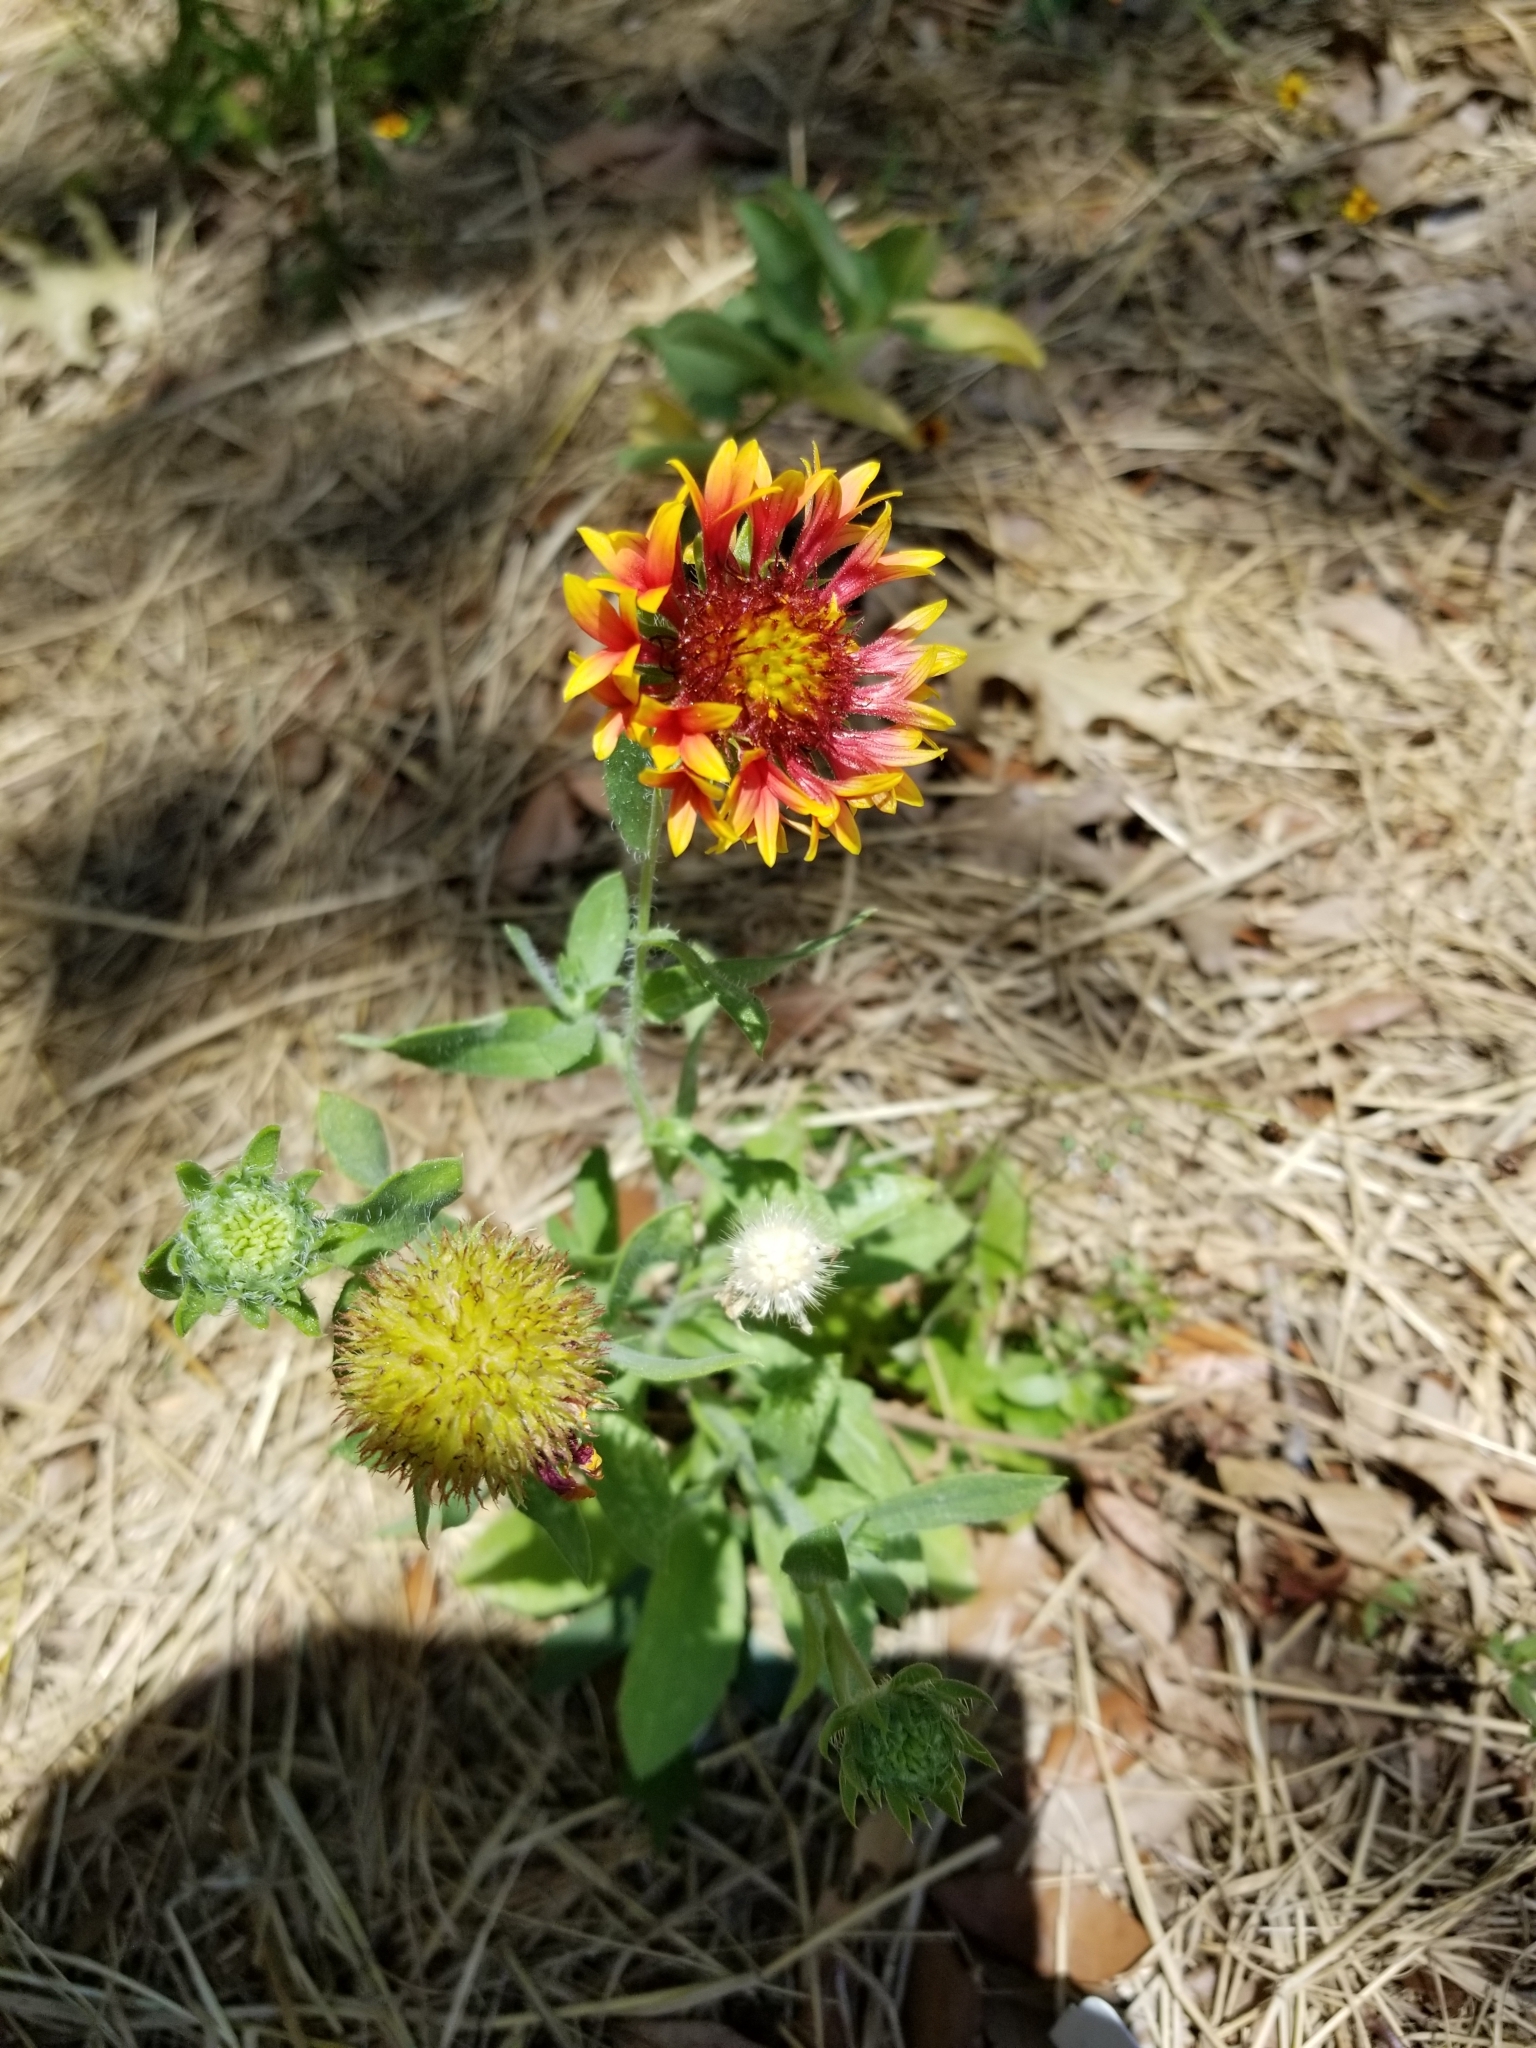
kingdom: Plantae
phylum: Tracheophyta
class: Magnoliopsida
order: Asterales
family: Asteraceae
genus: Gaillardia
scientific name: Gaillardia pulchella
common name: Firewheel
